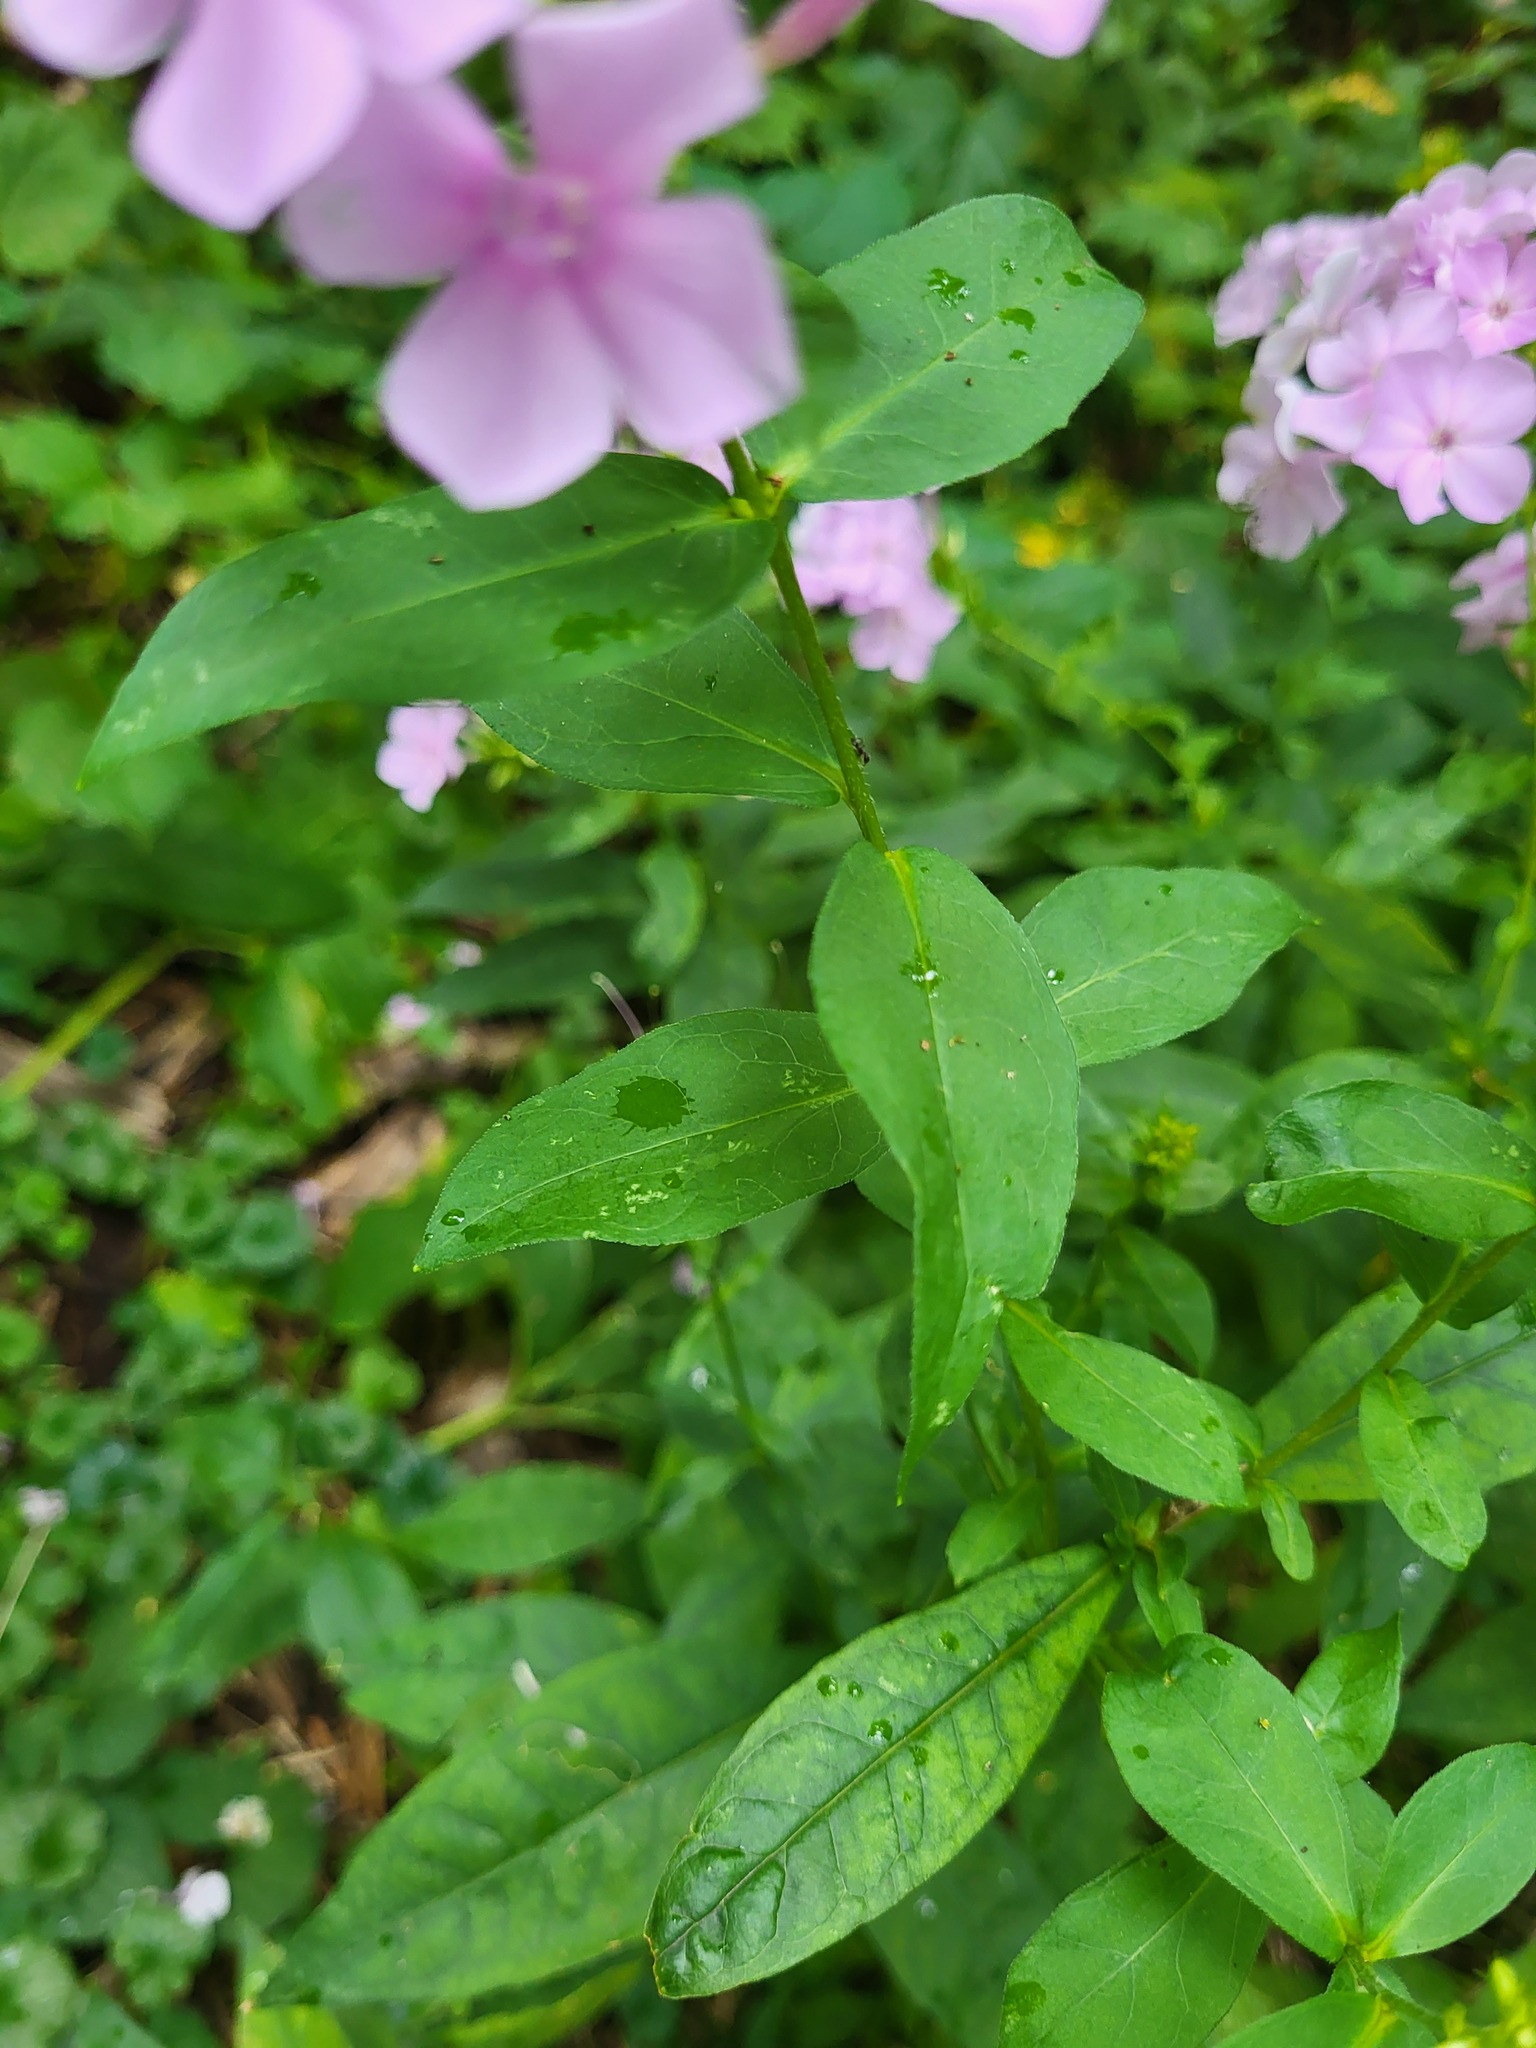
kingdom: Plantae
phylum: Tracheophyta
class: Magnoliopsida
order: Ericales
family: Polemoniaceae
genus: Phlox
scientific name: Phlox paniculata
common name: Fall phlox
